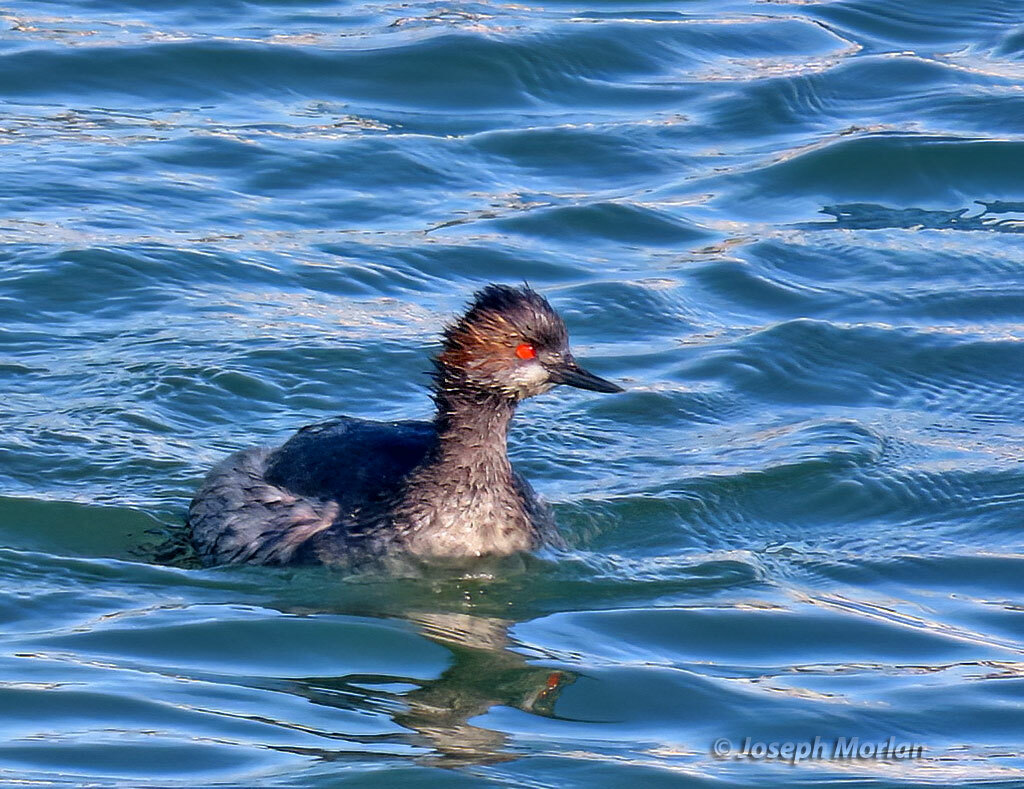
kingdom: Animalia
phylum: Chordata
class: Aves
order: Podicipediformes
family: Podicipedidae
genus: Podiceps
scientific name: Podiceps nigricollis
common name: Black-necked grebe
